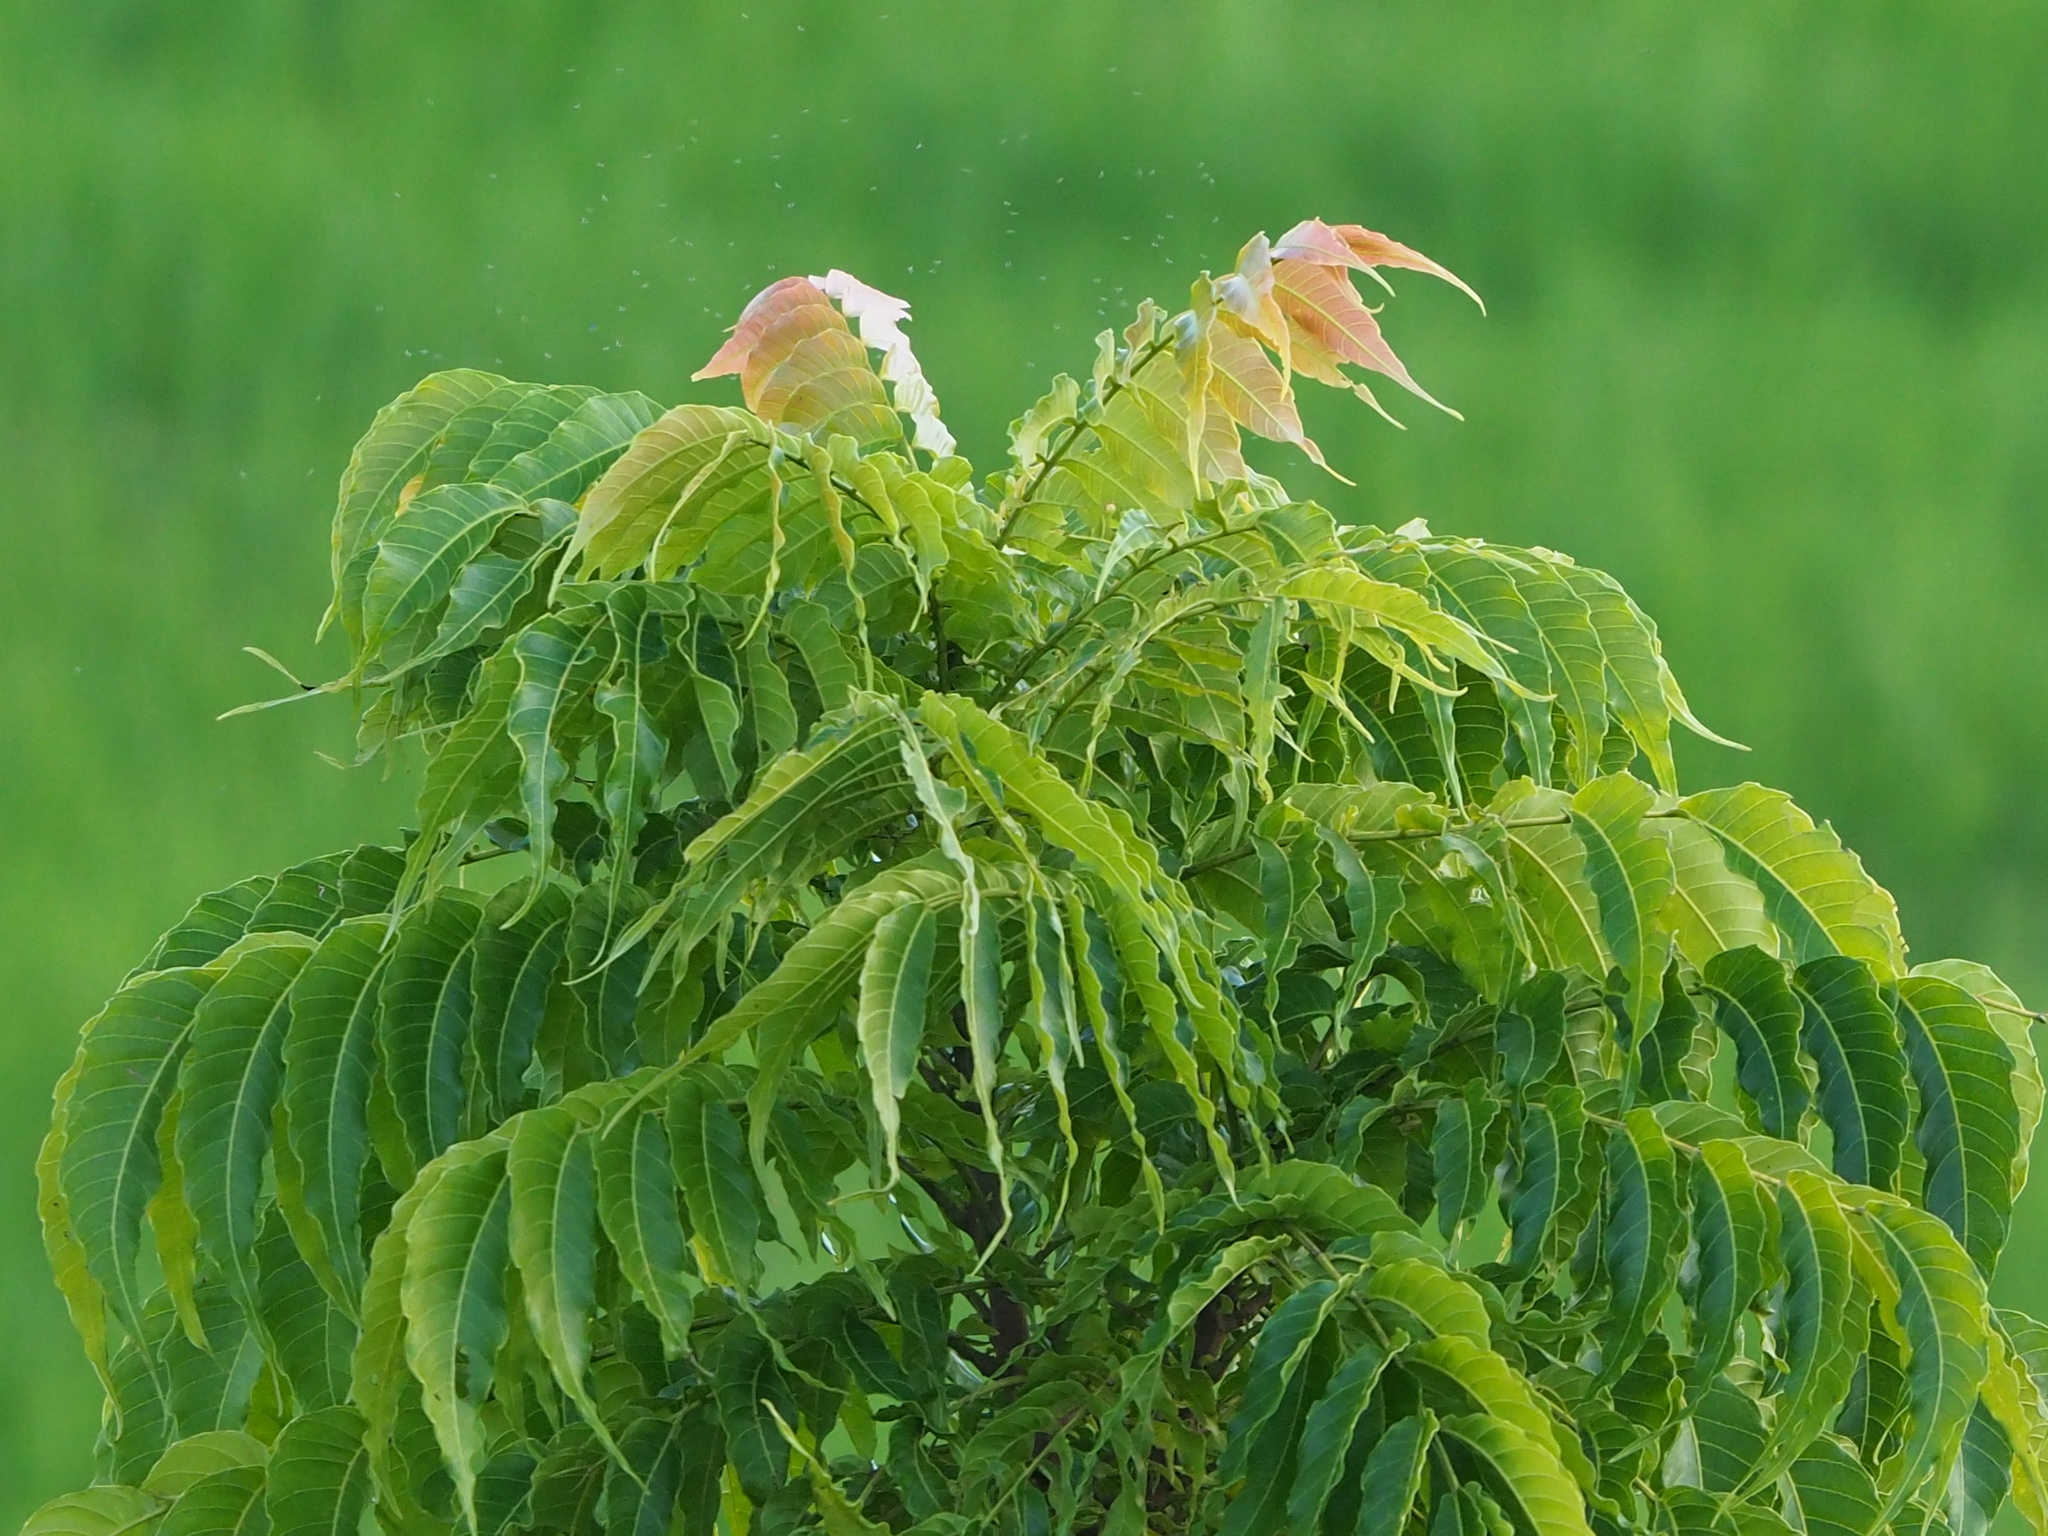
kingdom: Plantae
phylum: Tracheophyta
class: Magnoliopsida
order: Sapindales
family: Sapindaceae
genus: Pometia
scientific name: Pometia pinnata
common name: Oceanic lychee
